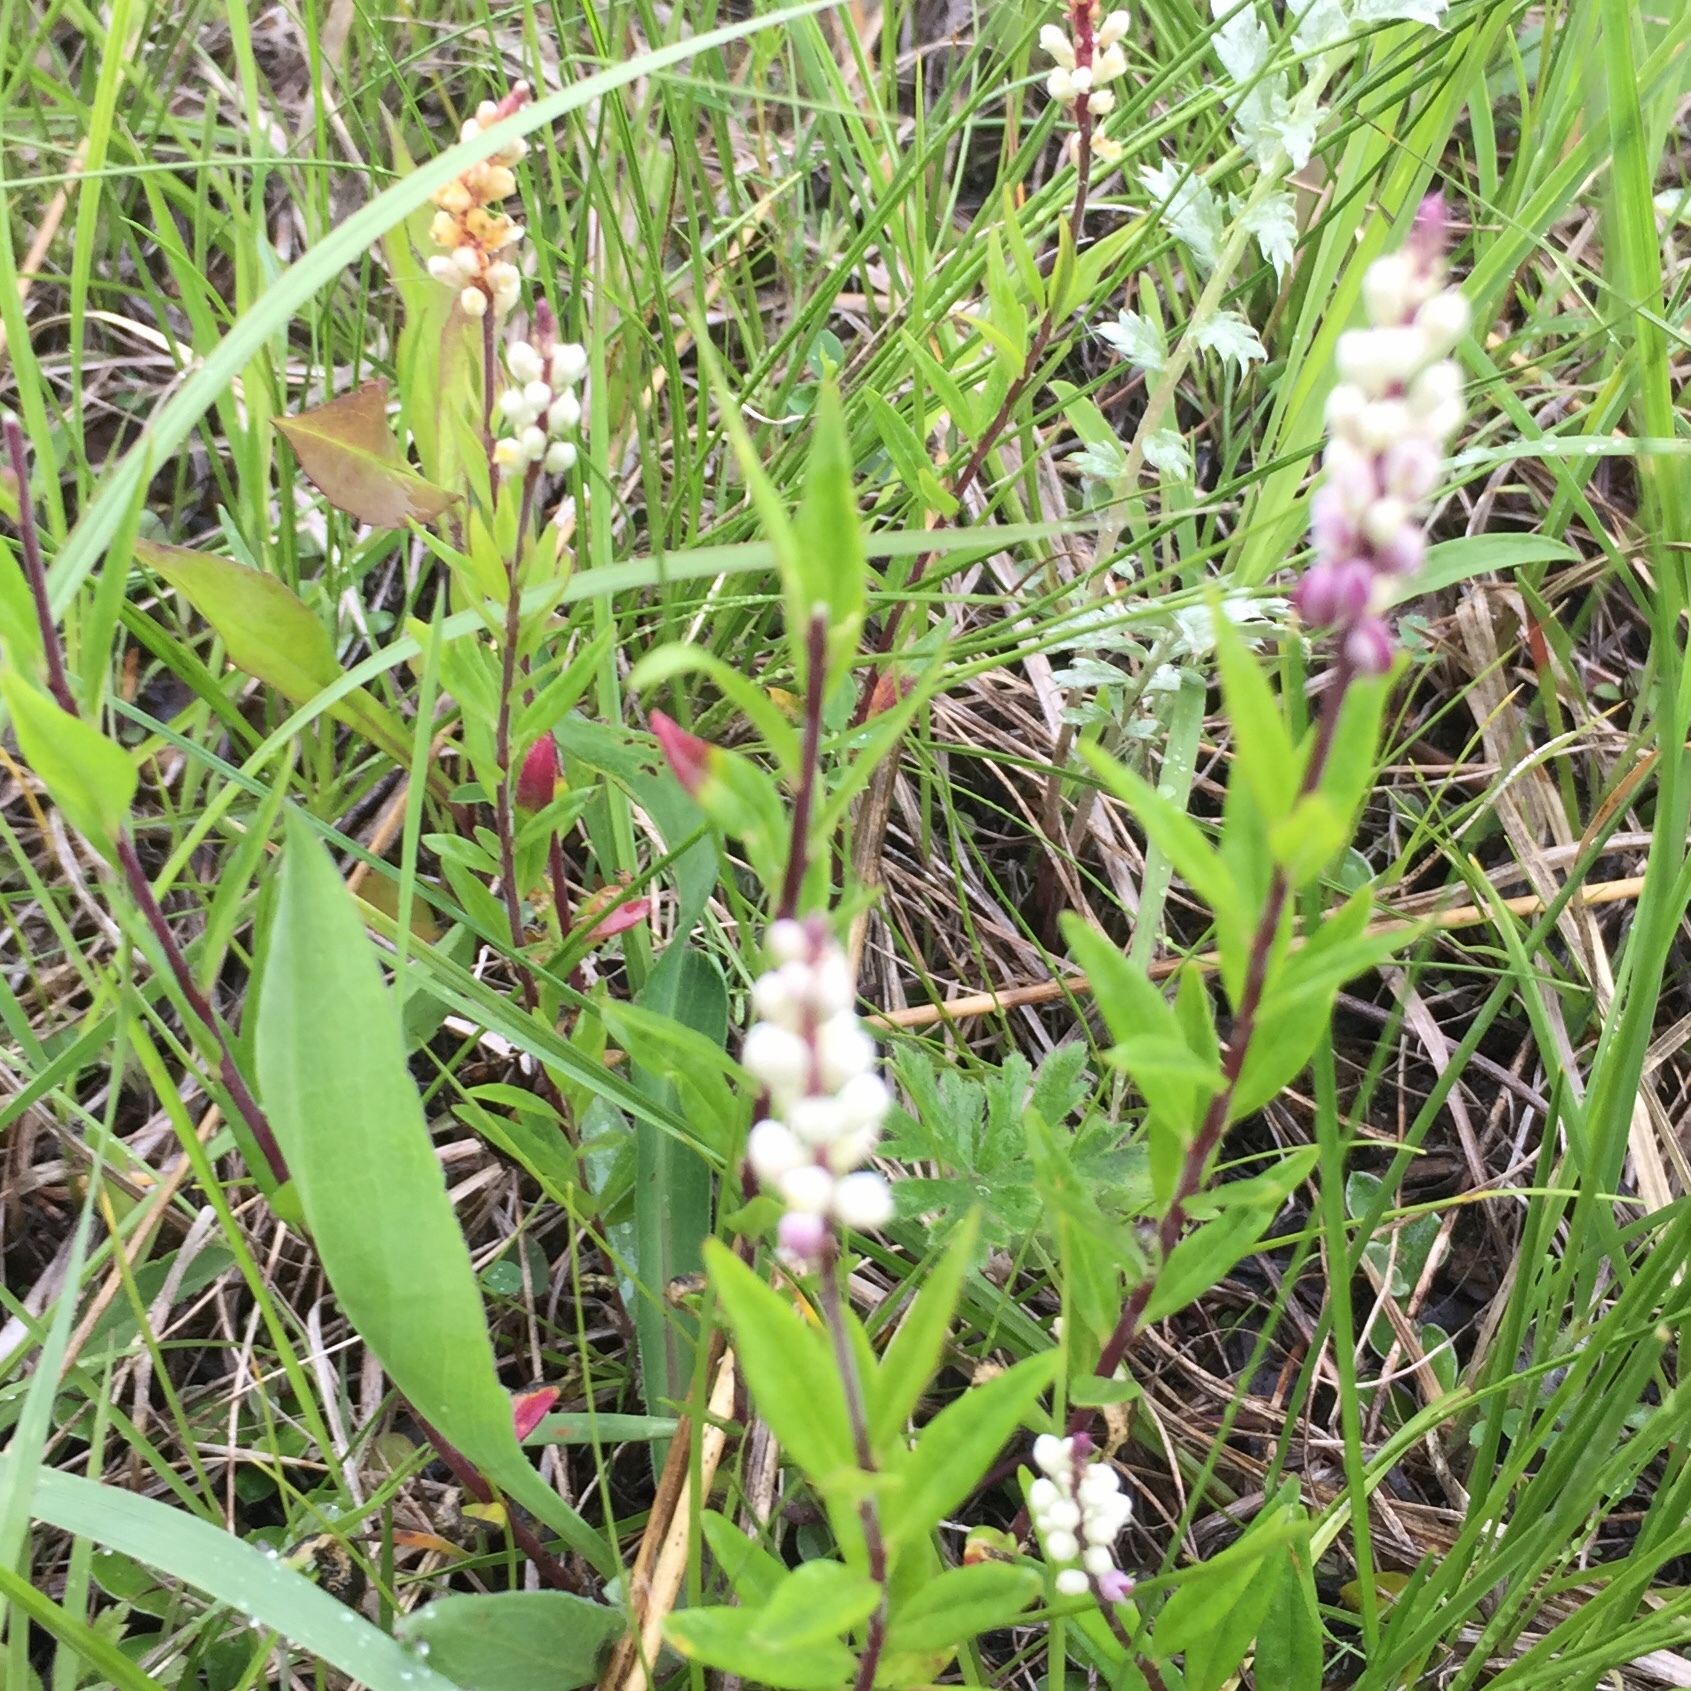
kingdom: Plantae
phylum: Tracheophyta
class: Magnoliopsida
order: Fabales
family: Polygalaceae
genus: Polygala
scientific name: Polygala senega
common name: Seneca snakeroot
